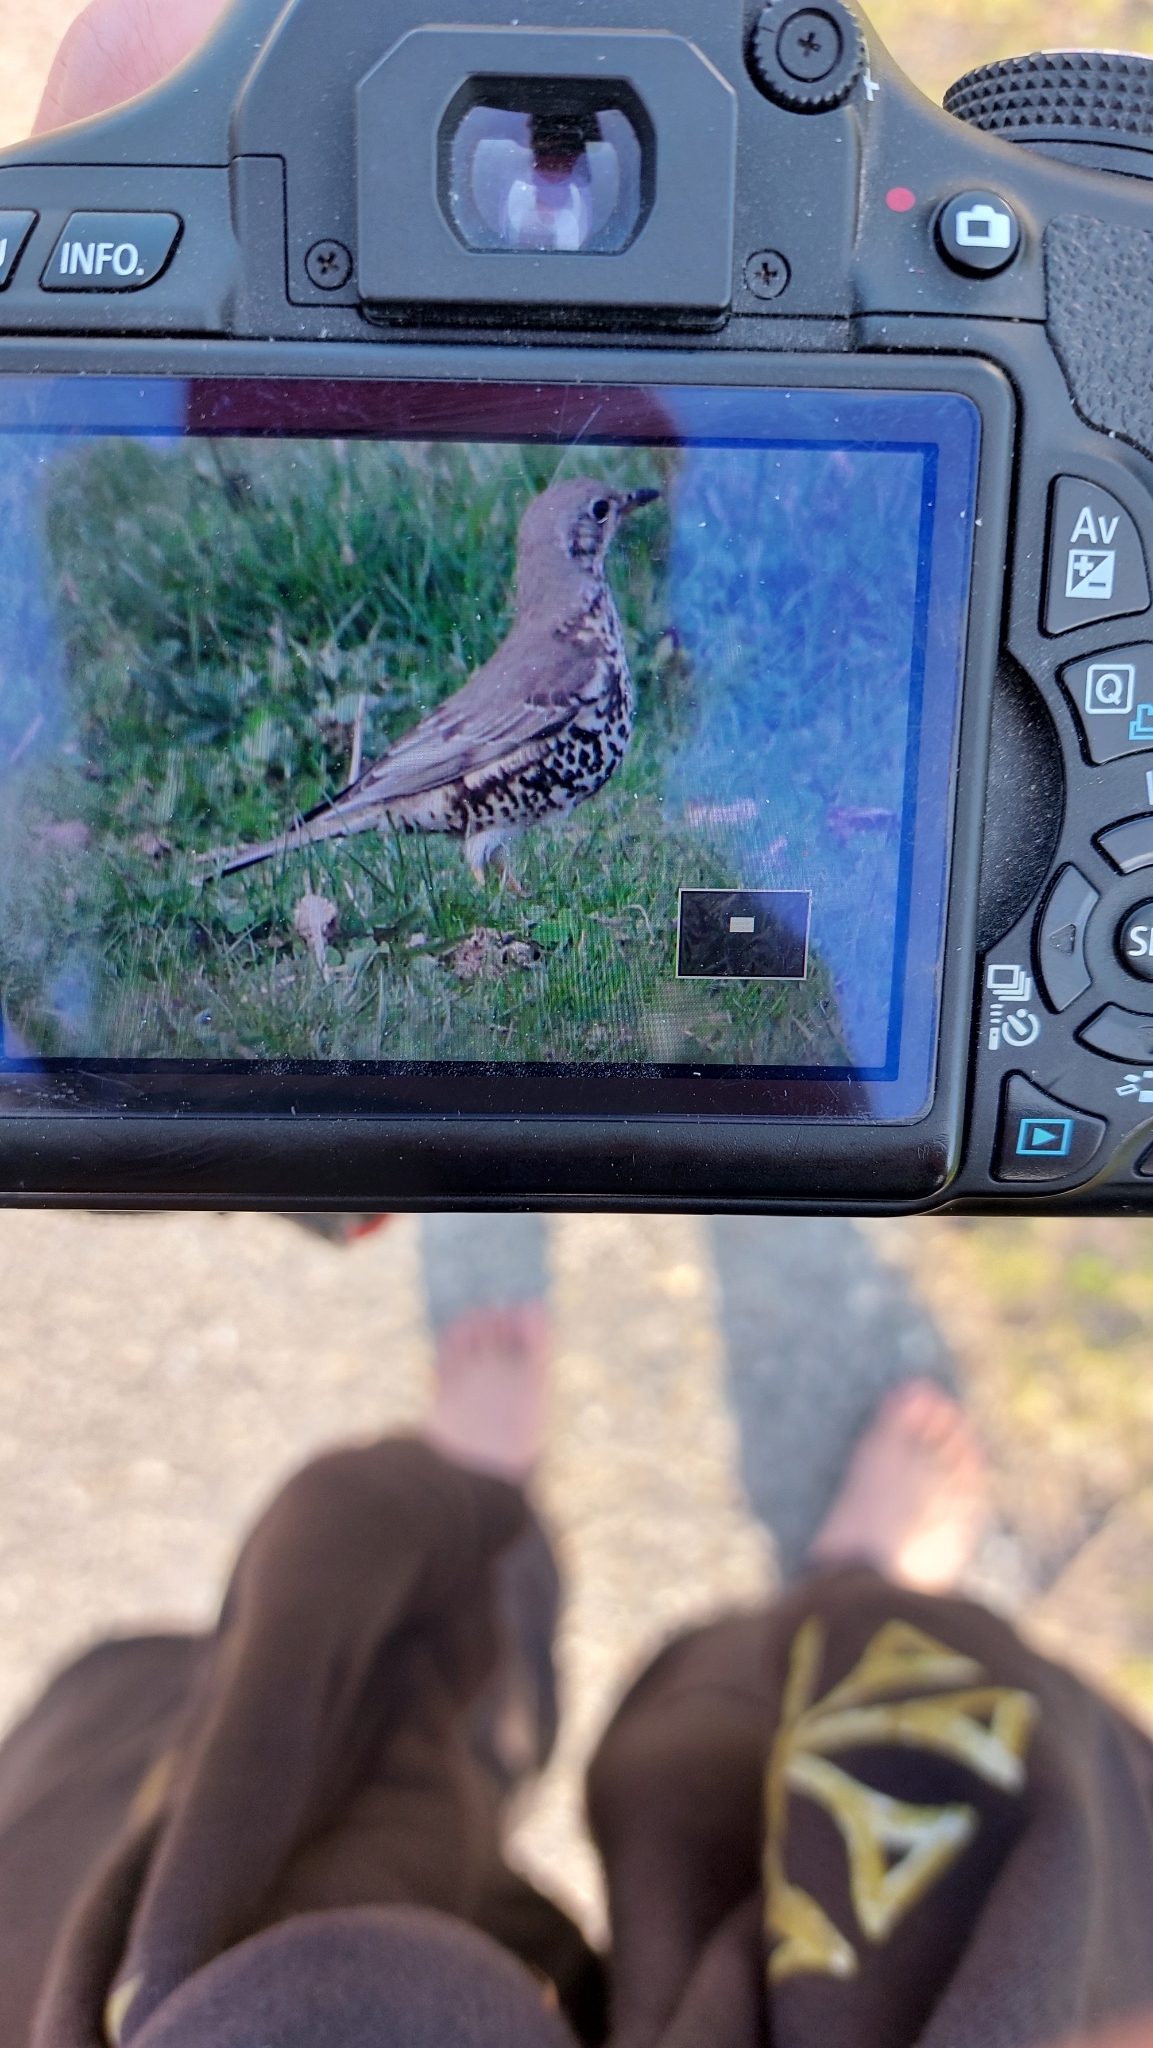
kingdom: Animalia
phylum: Chordata
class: Aves
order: Passeriformes
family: Turdidae
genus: Turdus
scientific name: Turdus viscivorus
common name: Mistle thrush
